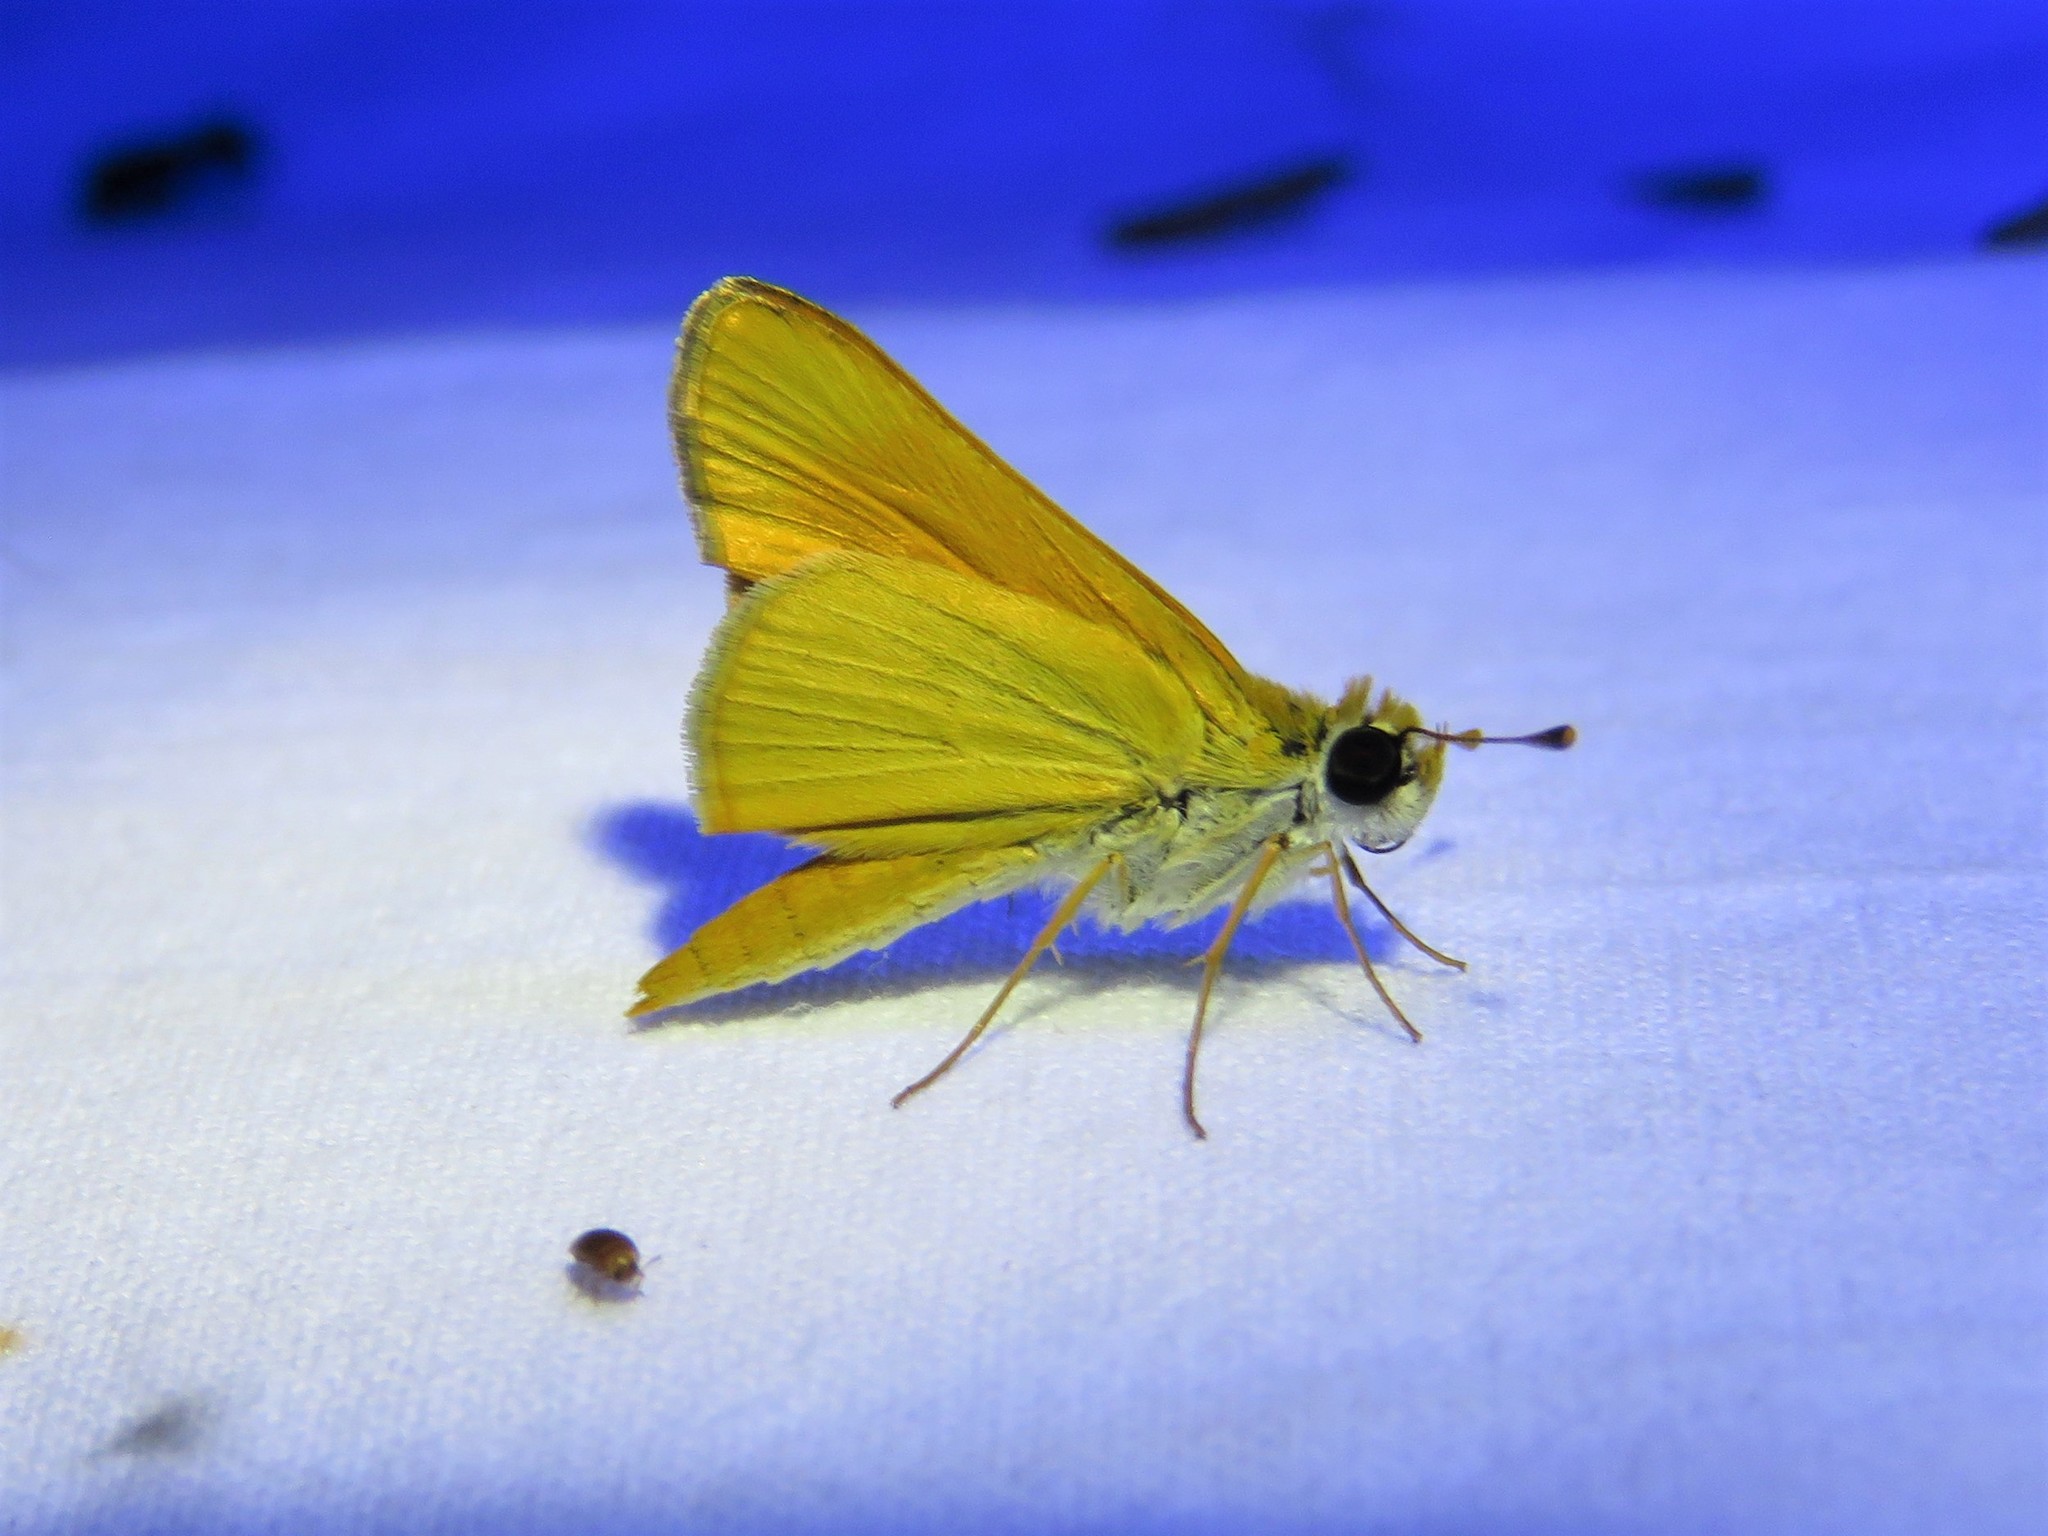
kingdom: Animalia
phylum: Arthropoda
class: Insecta
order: Lepidoptera
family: Hesperiidae
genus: Copaeodes
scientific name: Copaeodes aurantiaca
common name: Orange skipperling
